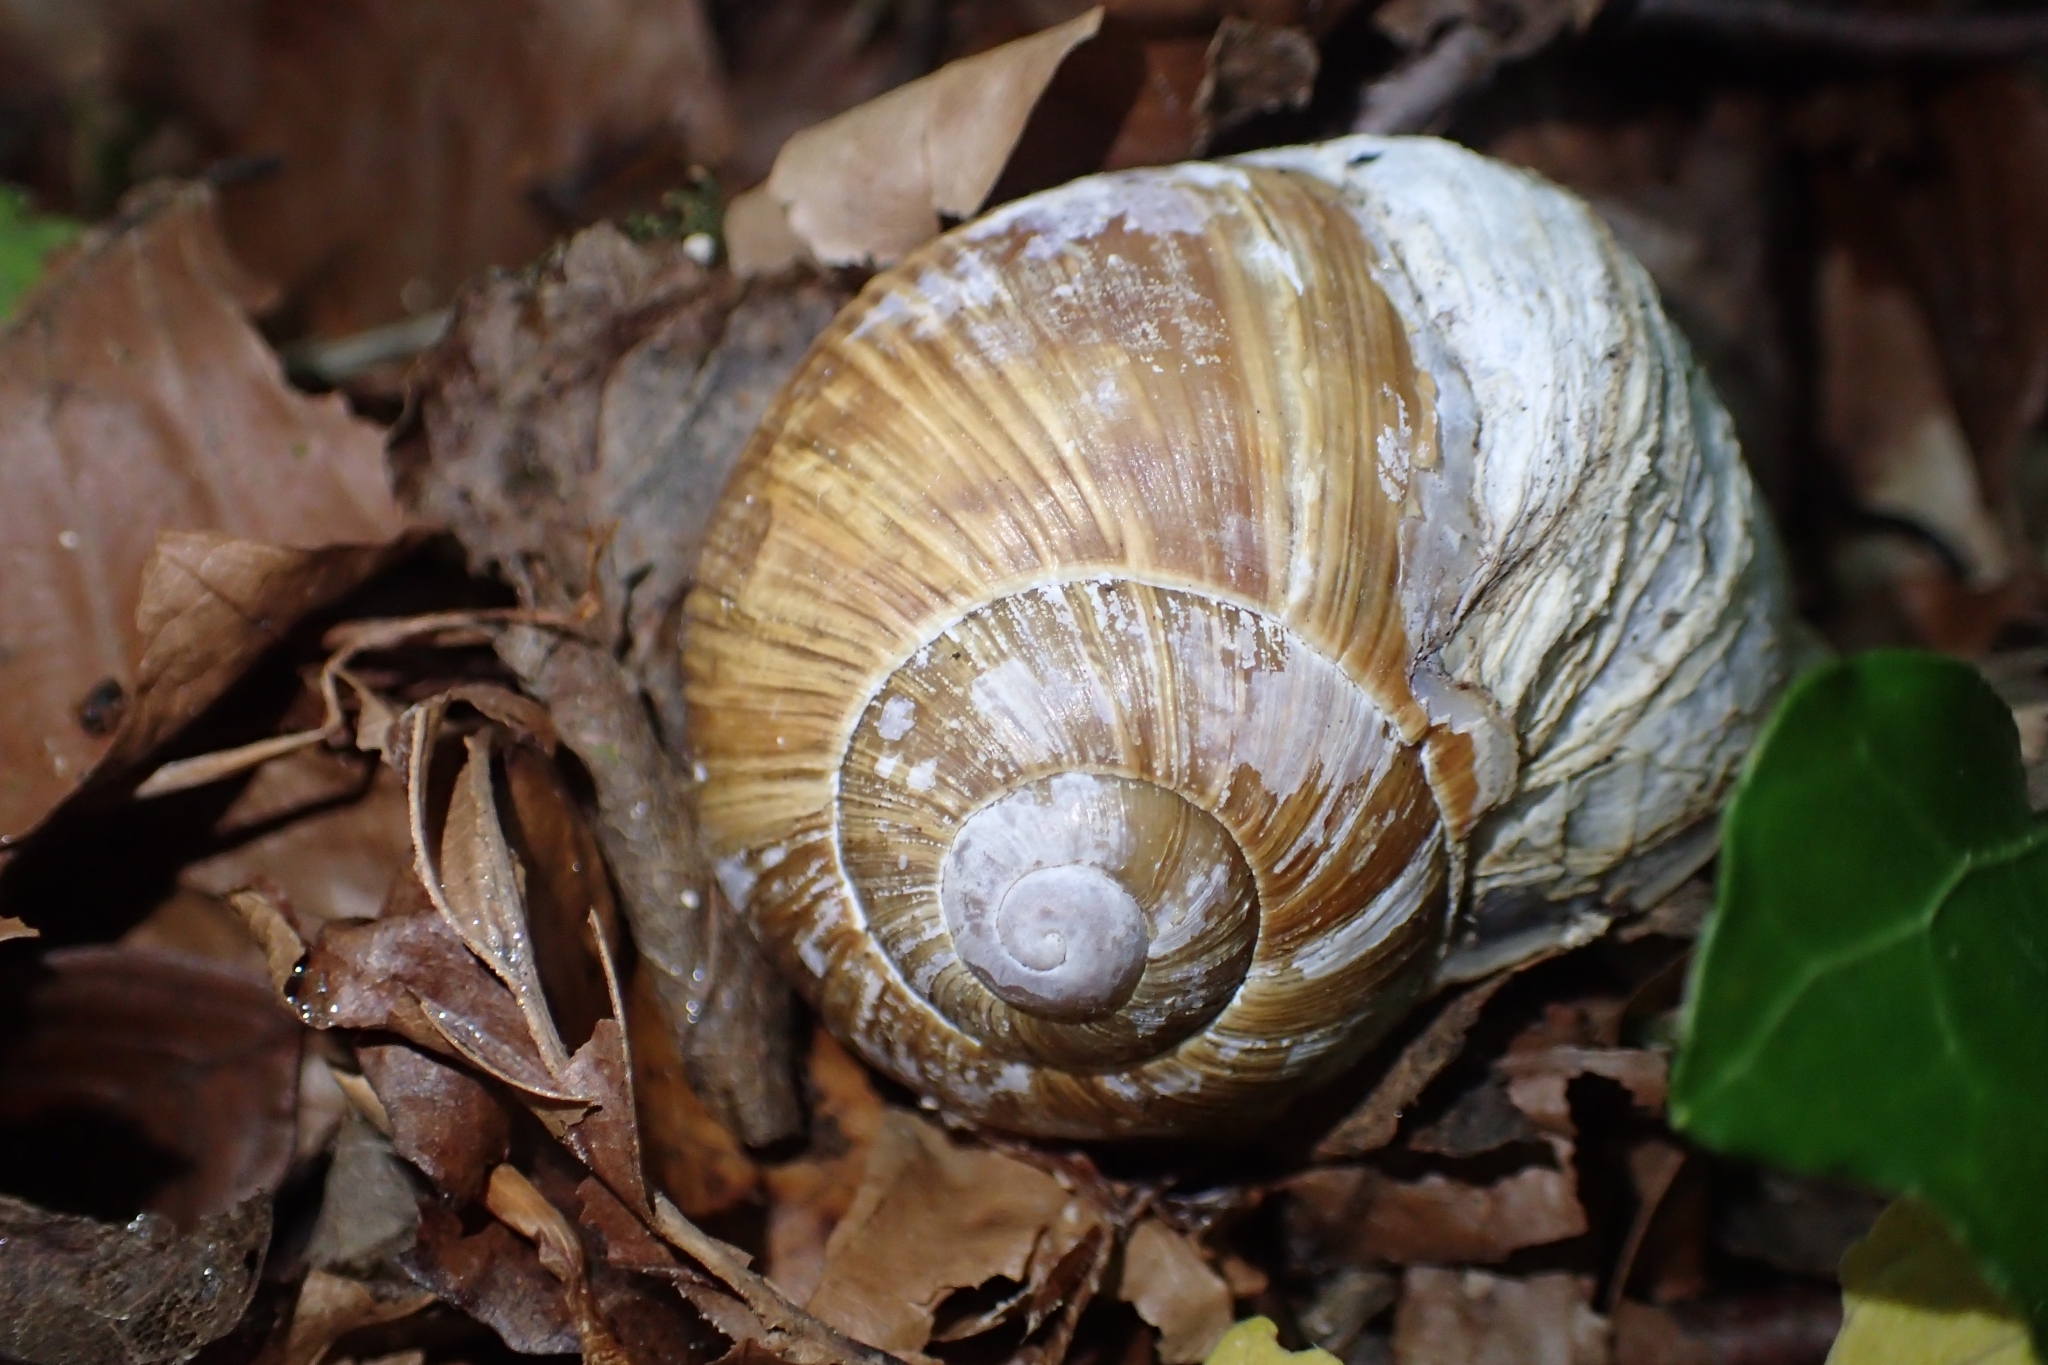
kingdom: Animalia
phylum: Mollusca
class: Gastropoda
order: Stylommatophora
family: Helicidae
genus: Helix
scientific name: Helix pomatia
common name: Roman snail
